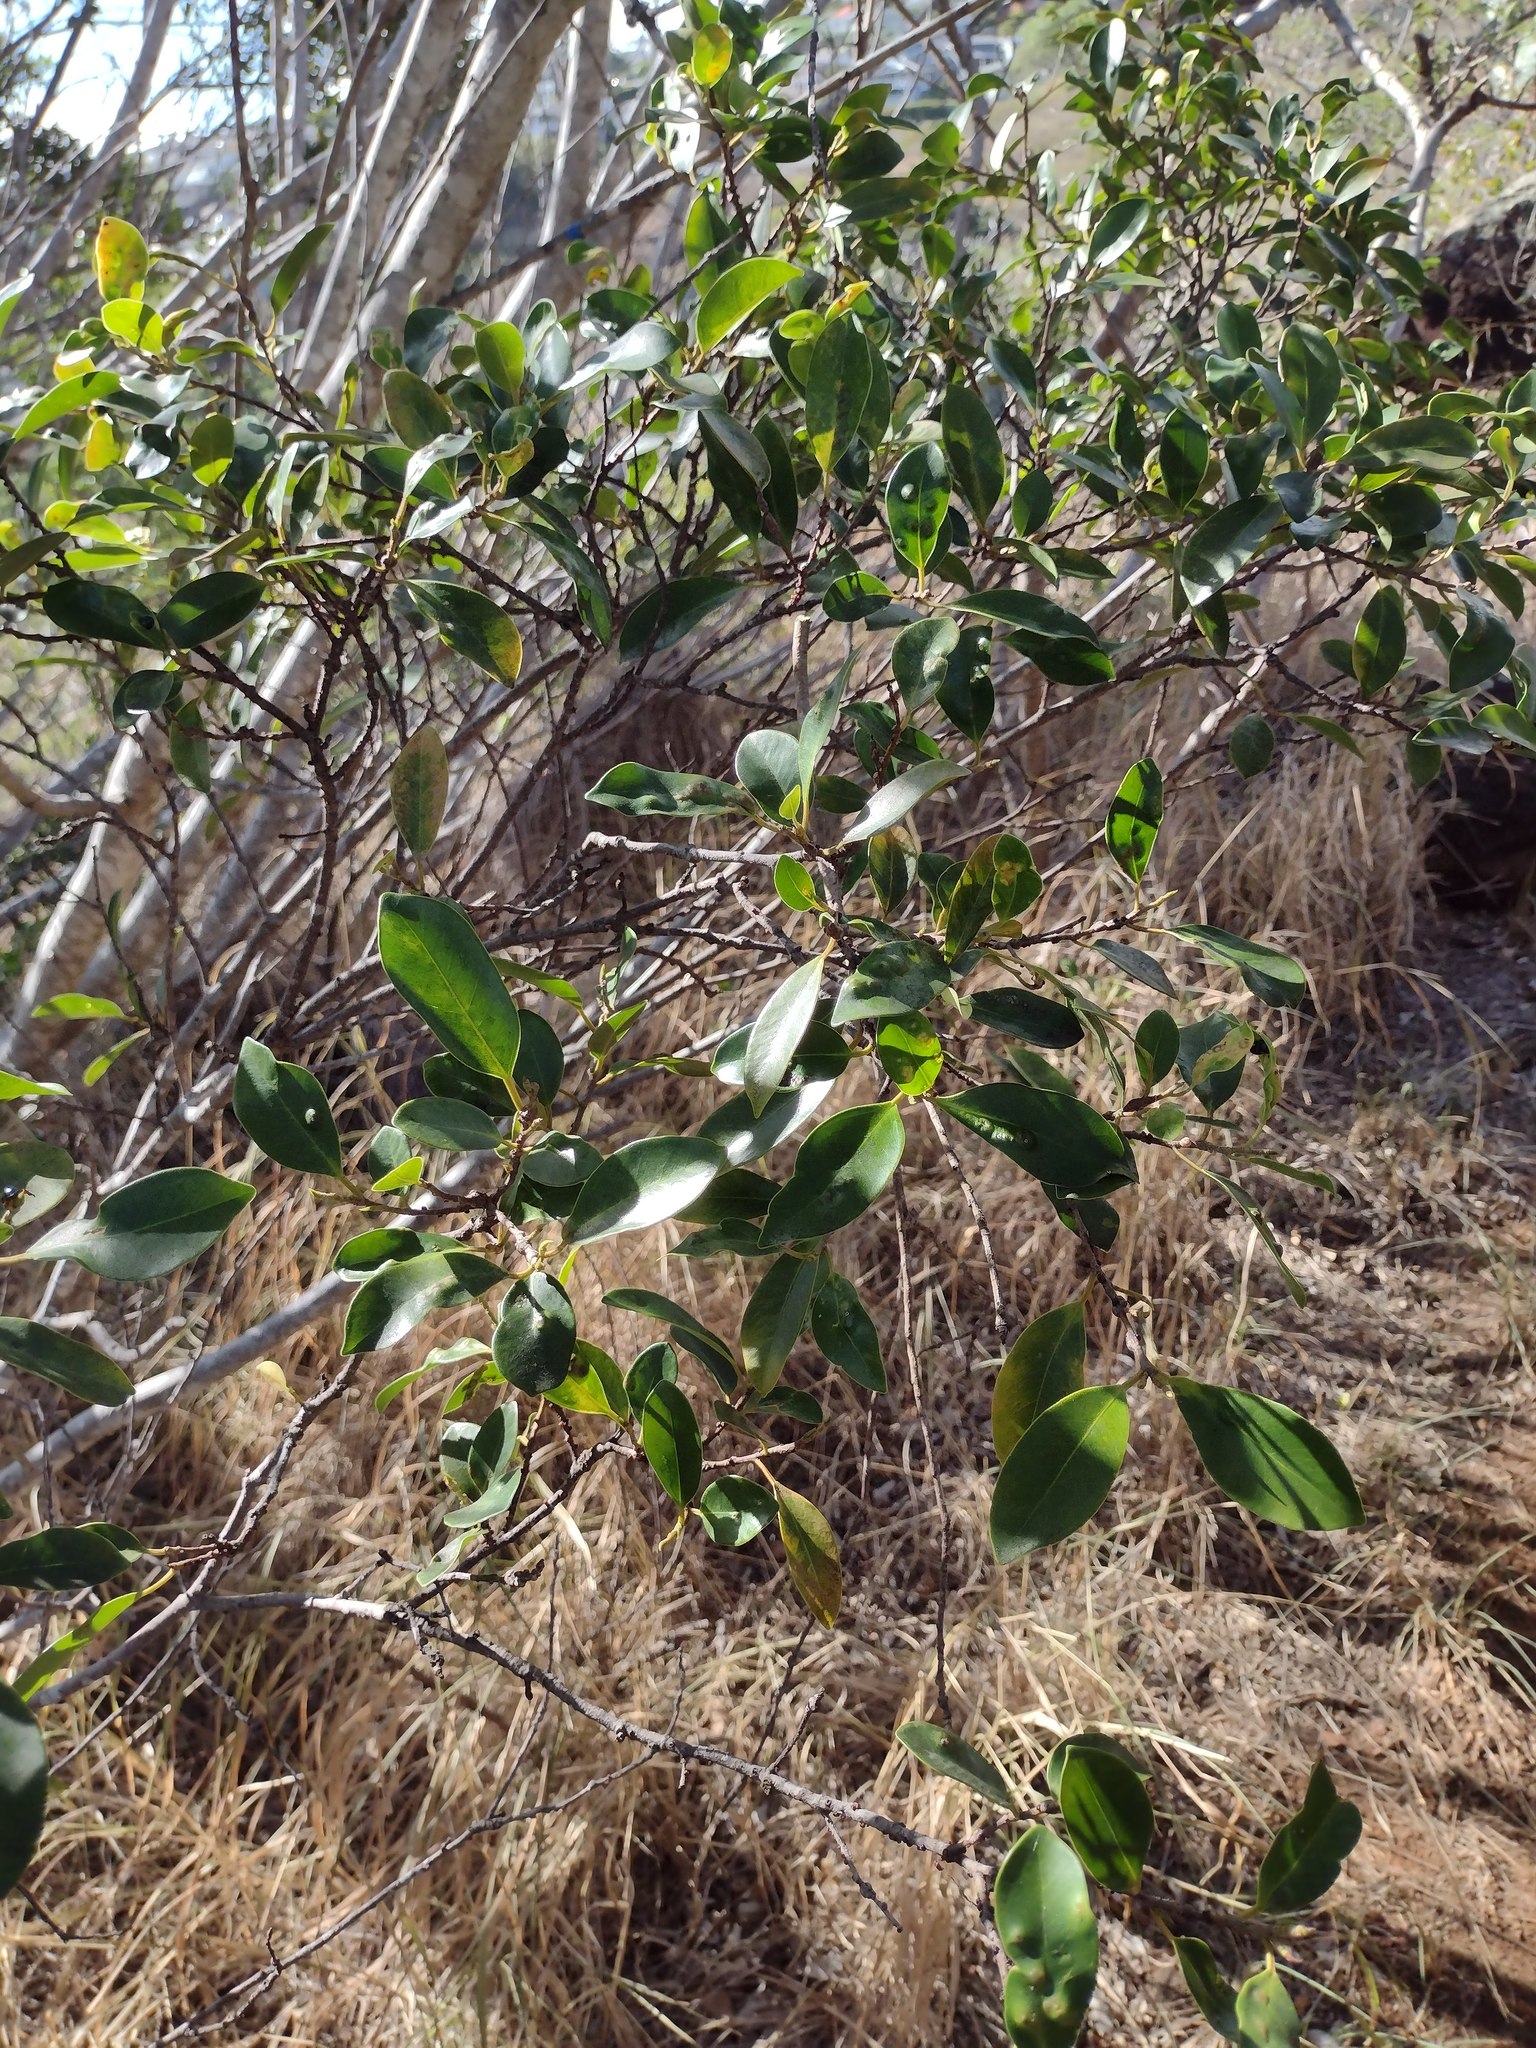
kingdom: Plantae
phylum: Tracheophyta
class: Magnoliopsida
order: Rosales
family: Moraceae
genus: Ficus
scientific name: Ficus microcarpa
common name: Chinese banyan
